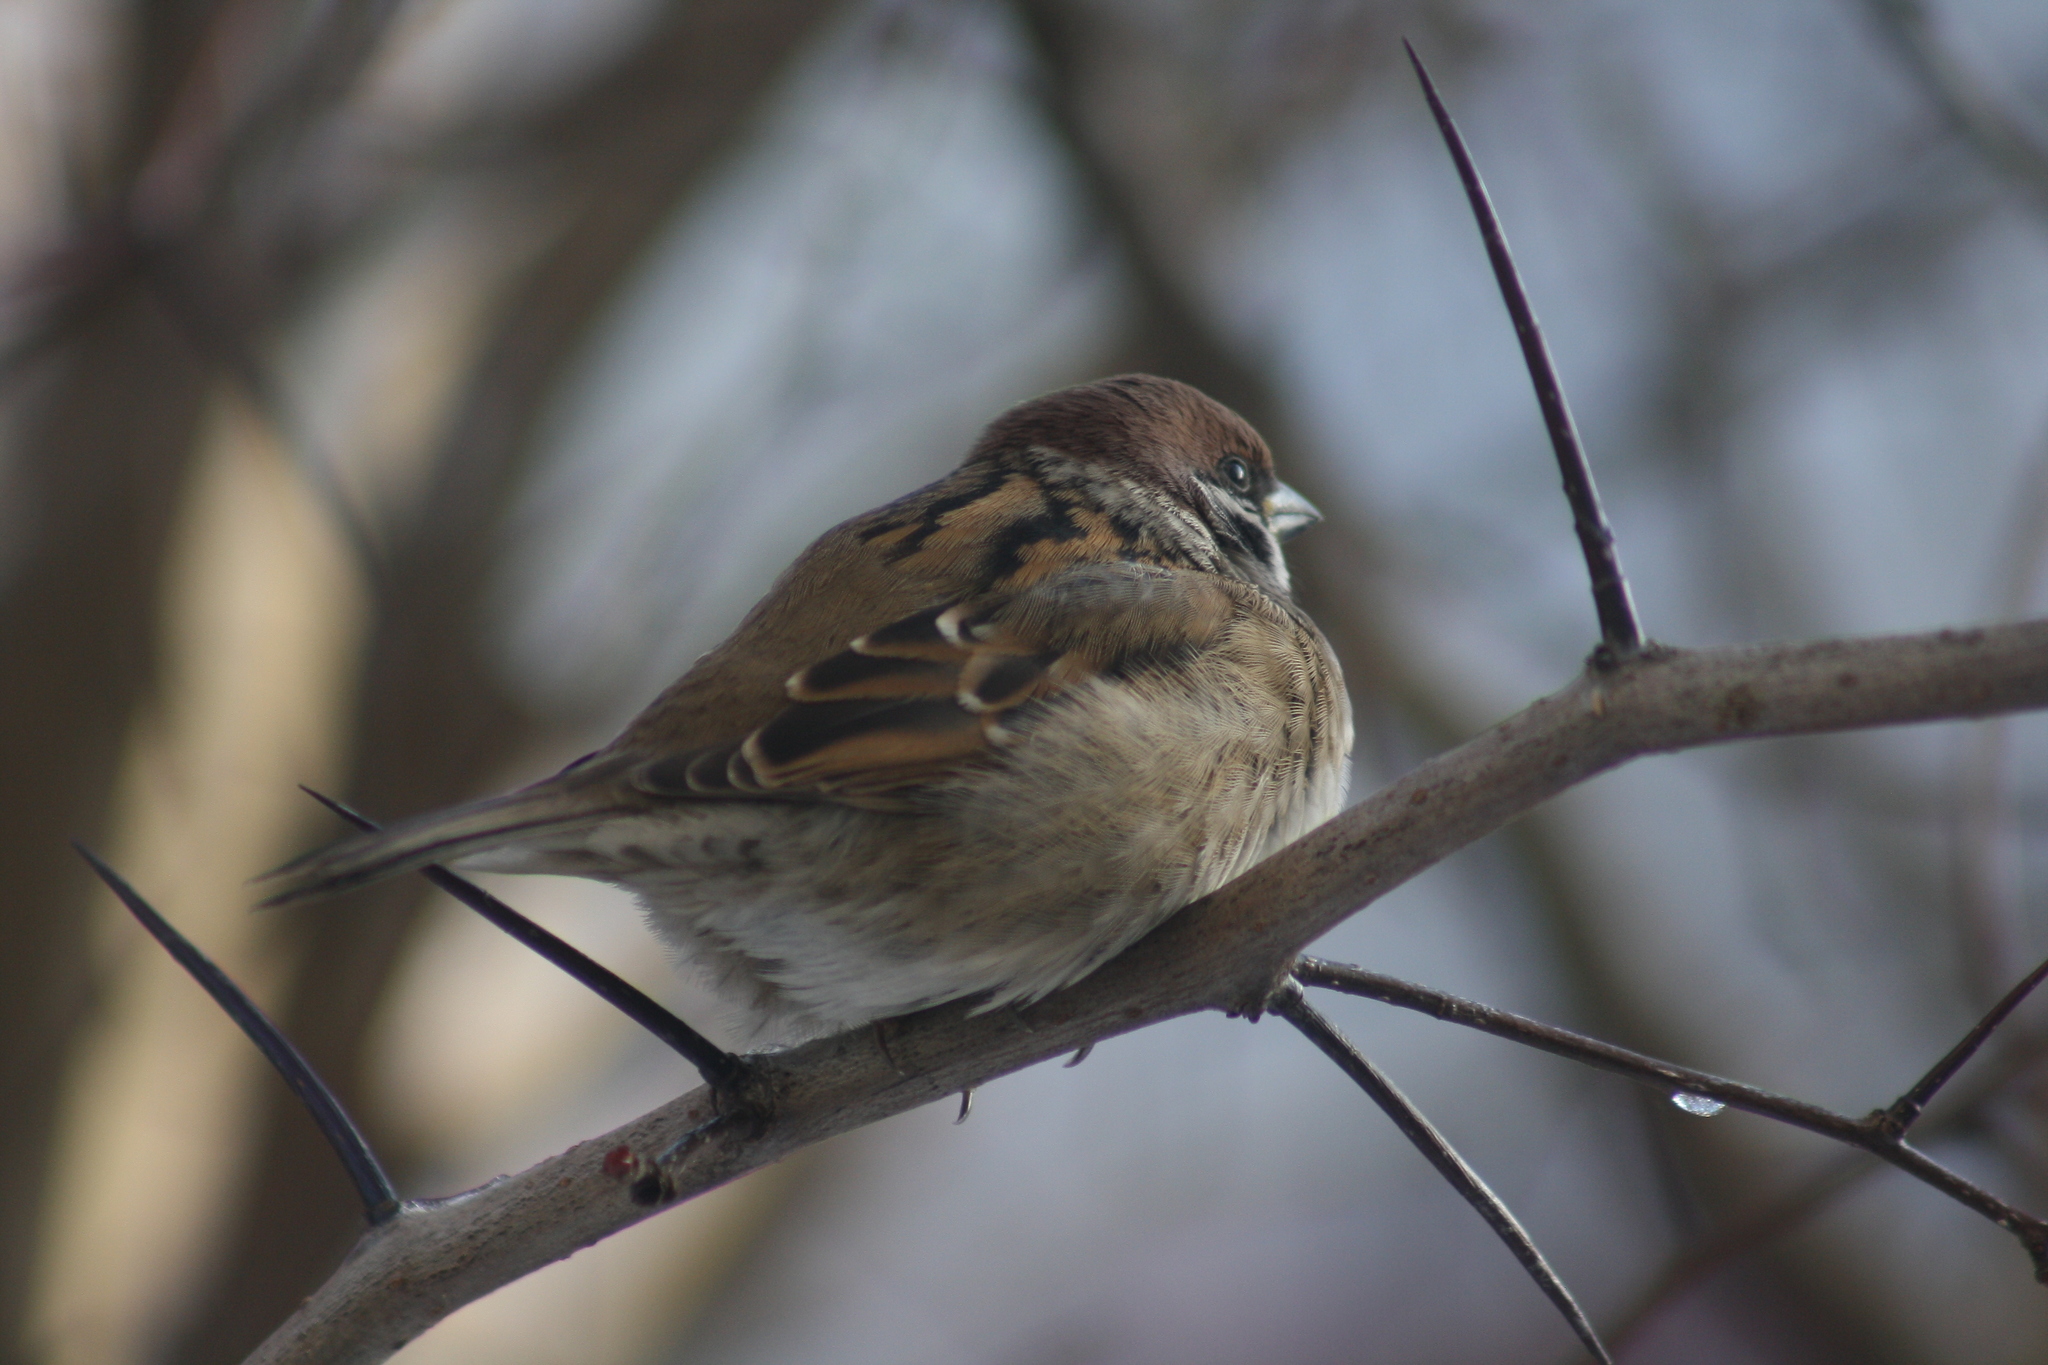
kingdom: Animalia
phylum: Chordata
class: Aves
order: Passeriformes
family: Passeridae
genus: Passer
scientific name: Passer montanus
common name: Eurasian tree sparrow
